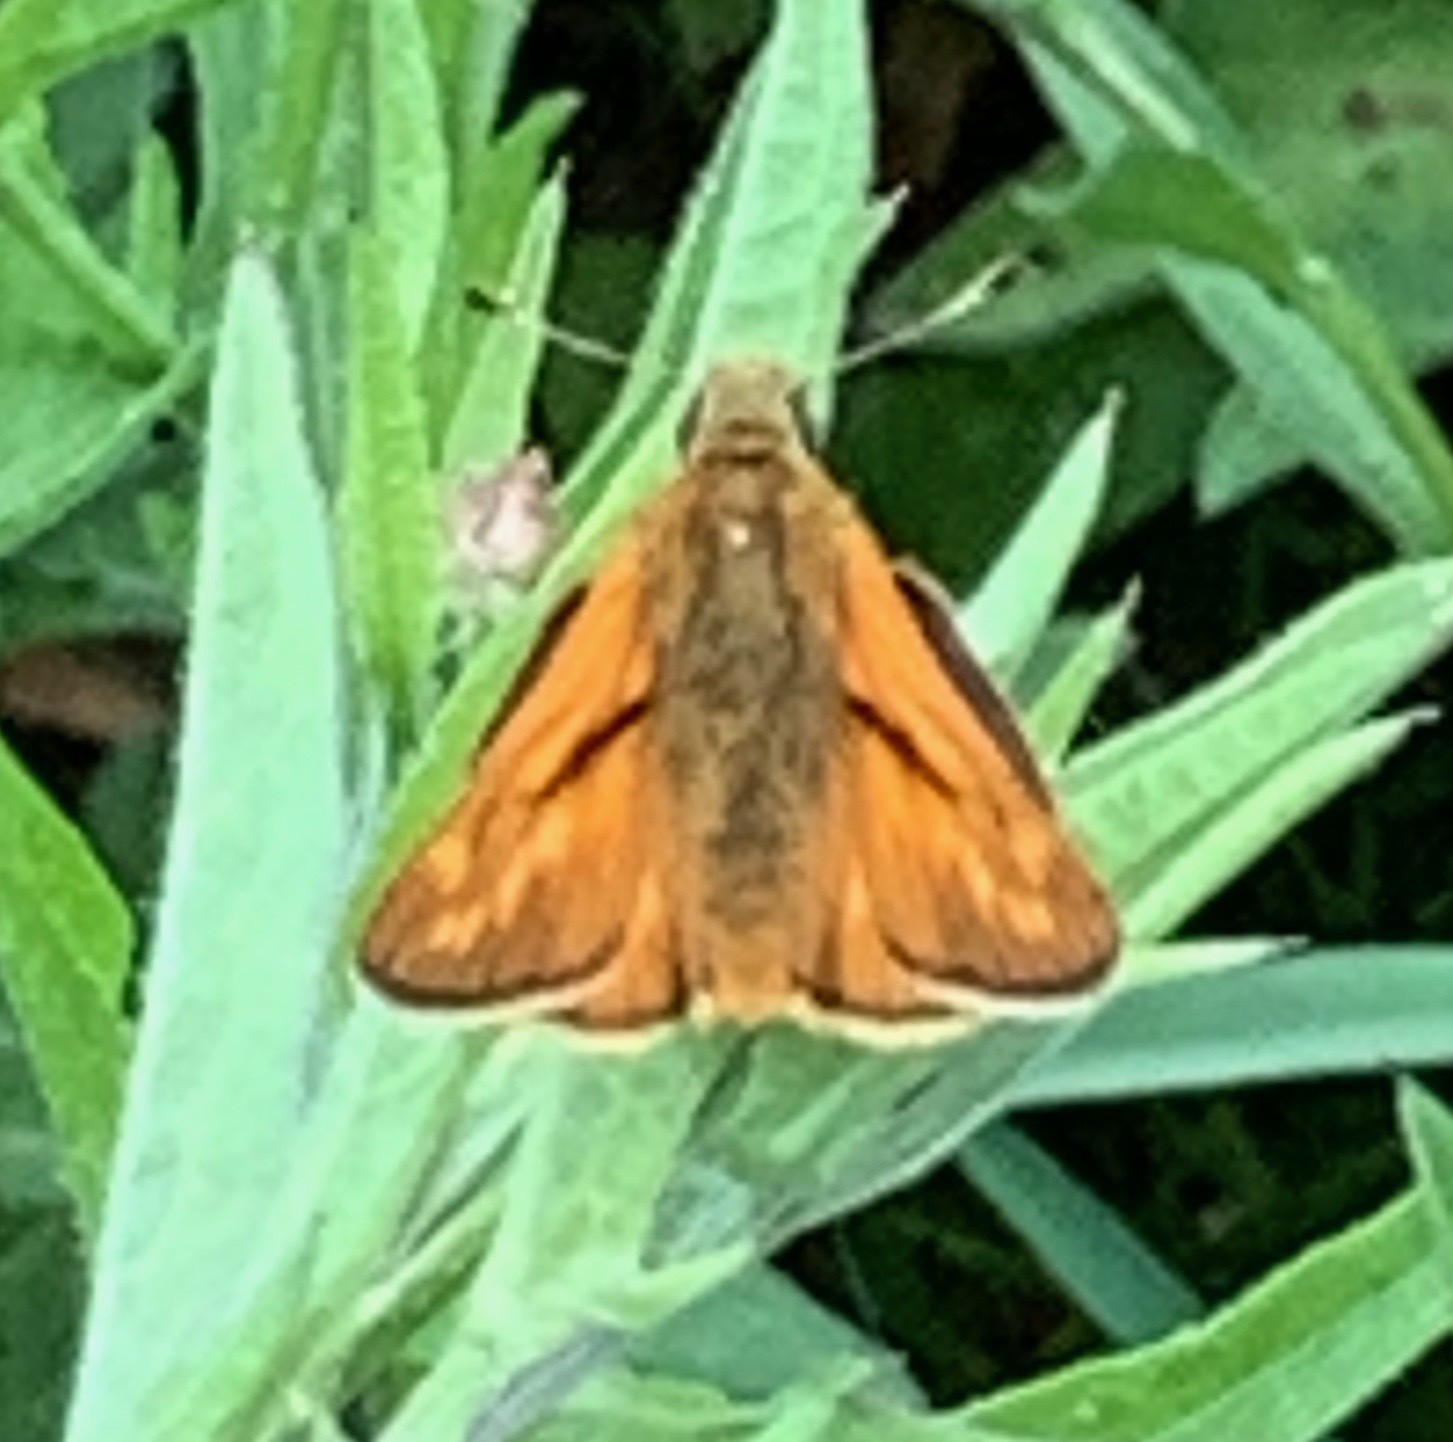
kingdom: Animalia
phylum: Arthropoda
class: Insecta
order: Lepidoptera
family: Hesperiidae
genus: Ochlodes
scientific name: Ochlodes venata
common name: Large skipper
